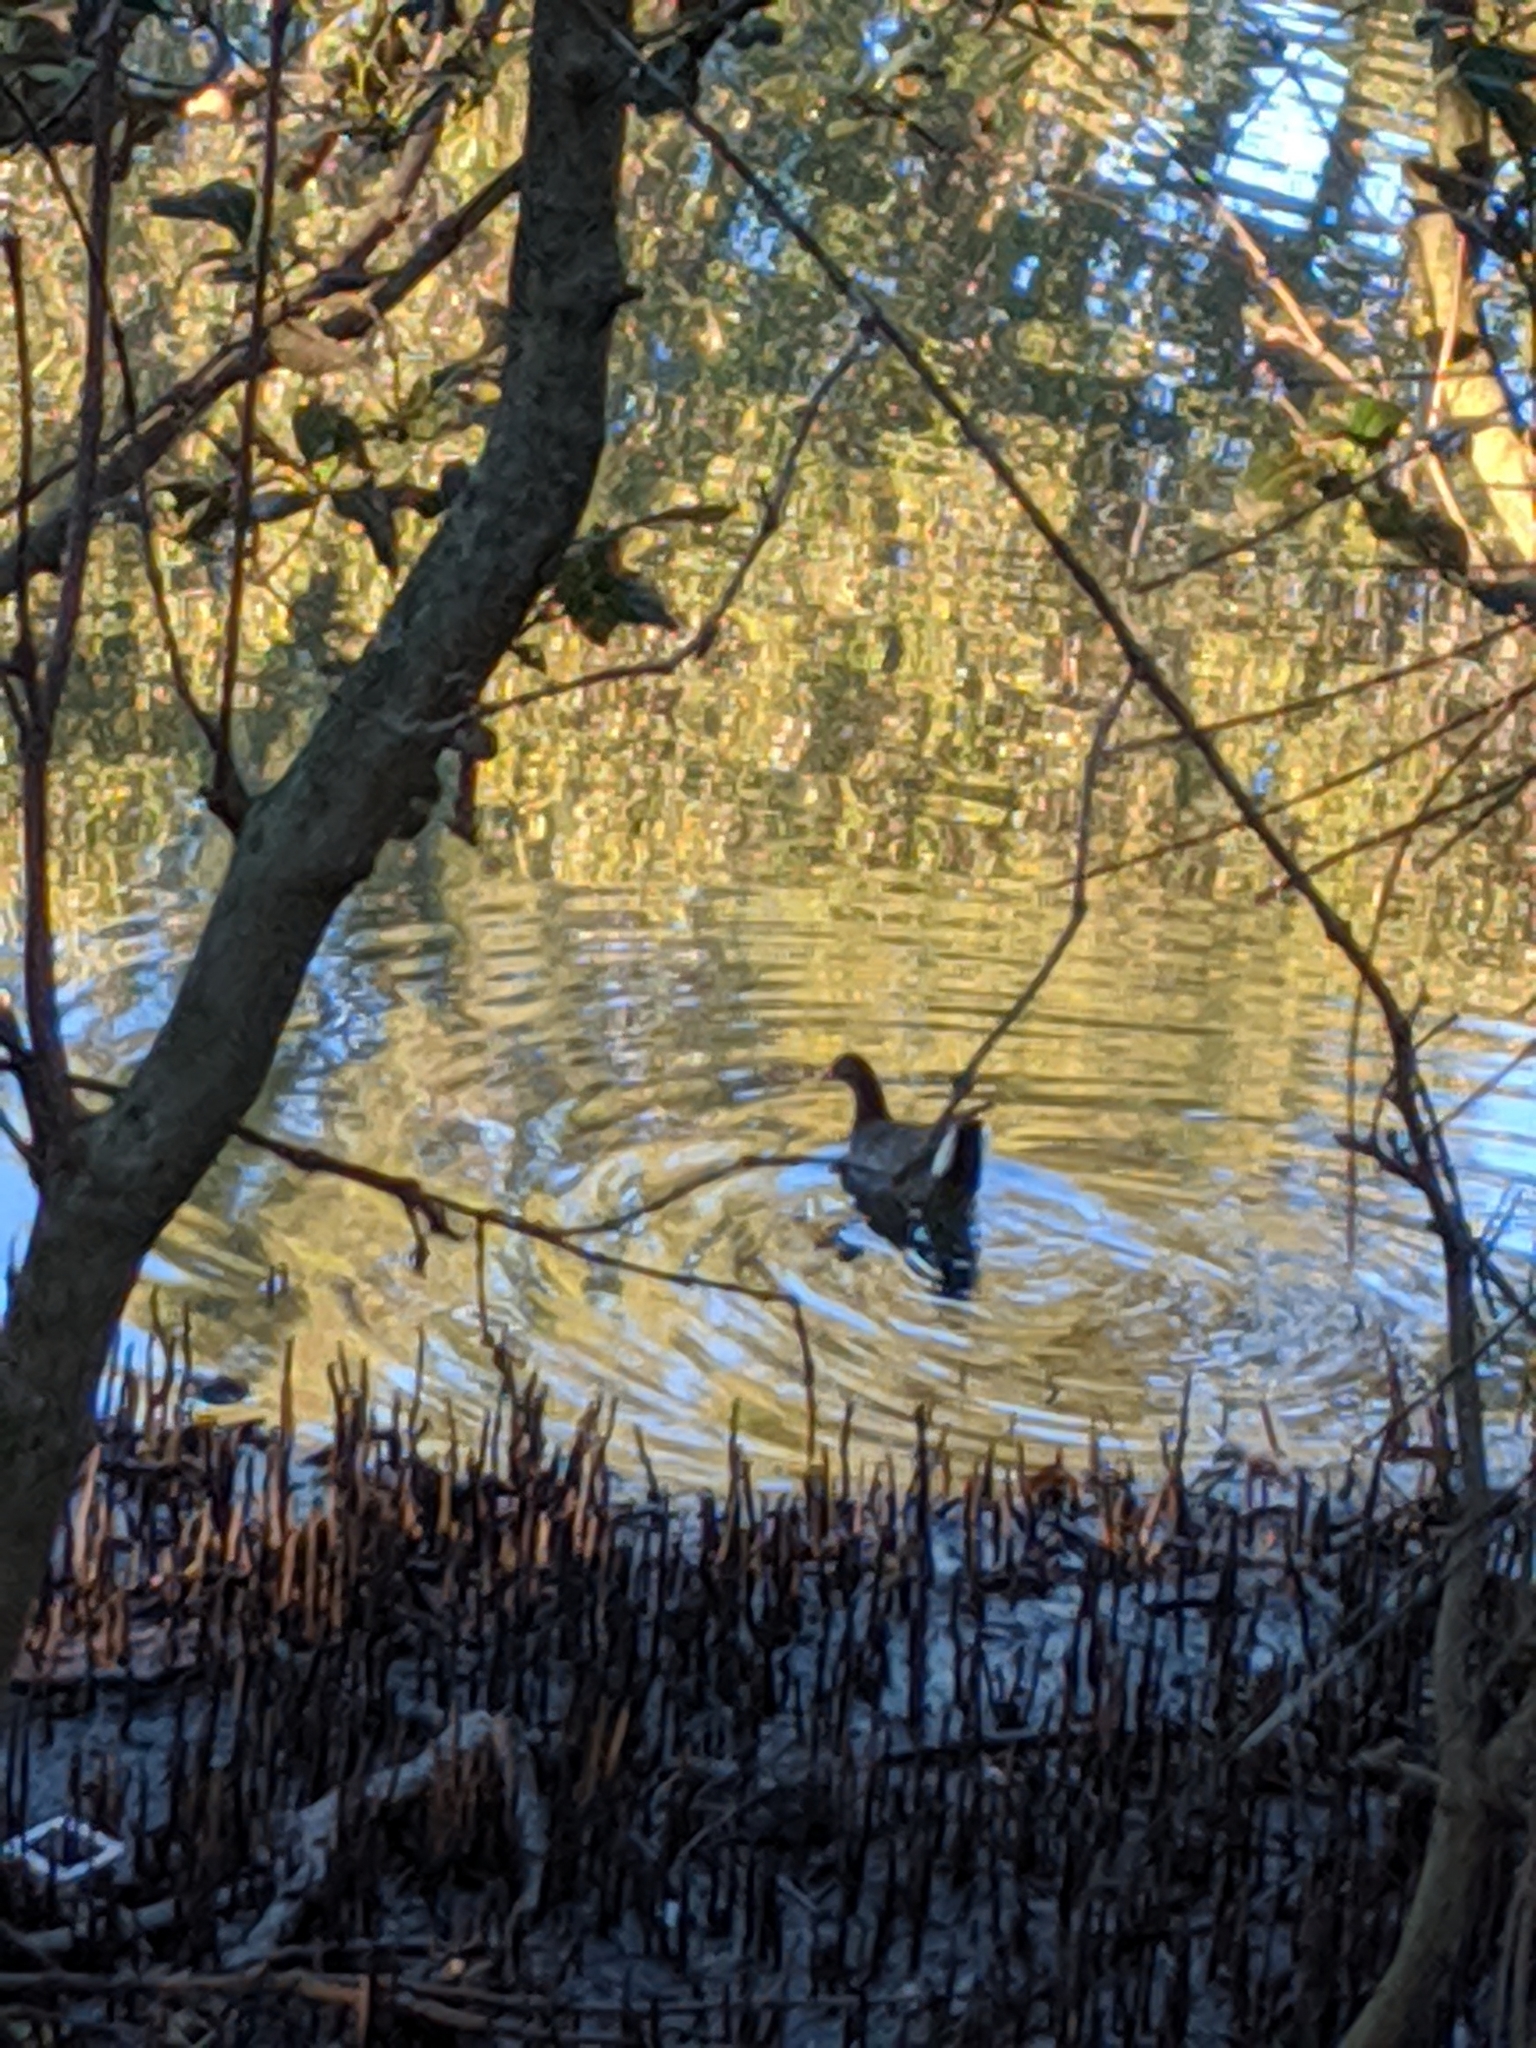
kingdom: Animalia
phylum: Chordata
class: Aves
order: Gruiformes
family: Rallidae
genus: Gallinula
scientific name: Gallinula tenebrosa
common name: Dusky moorhen
